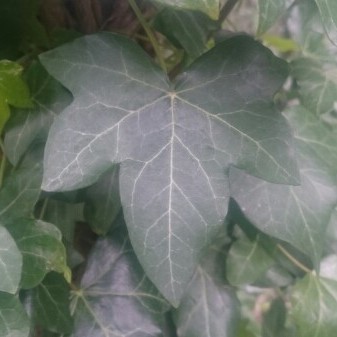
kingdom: Plantae
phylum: Tracheophyta
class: Magnoliopsida
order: Apiales
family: Araliaceae
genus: Hedera
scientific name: Hedera helix
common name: Ivy
